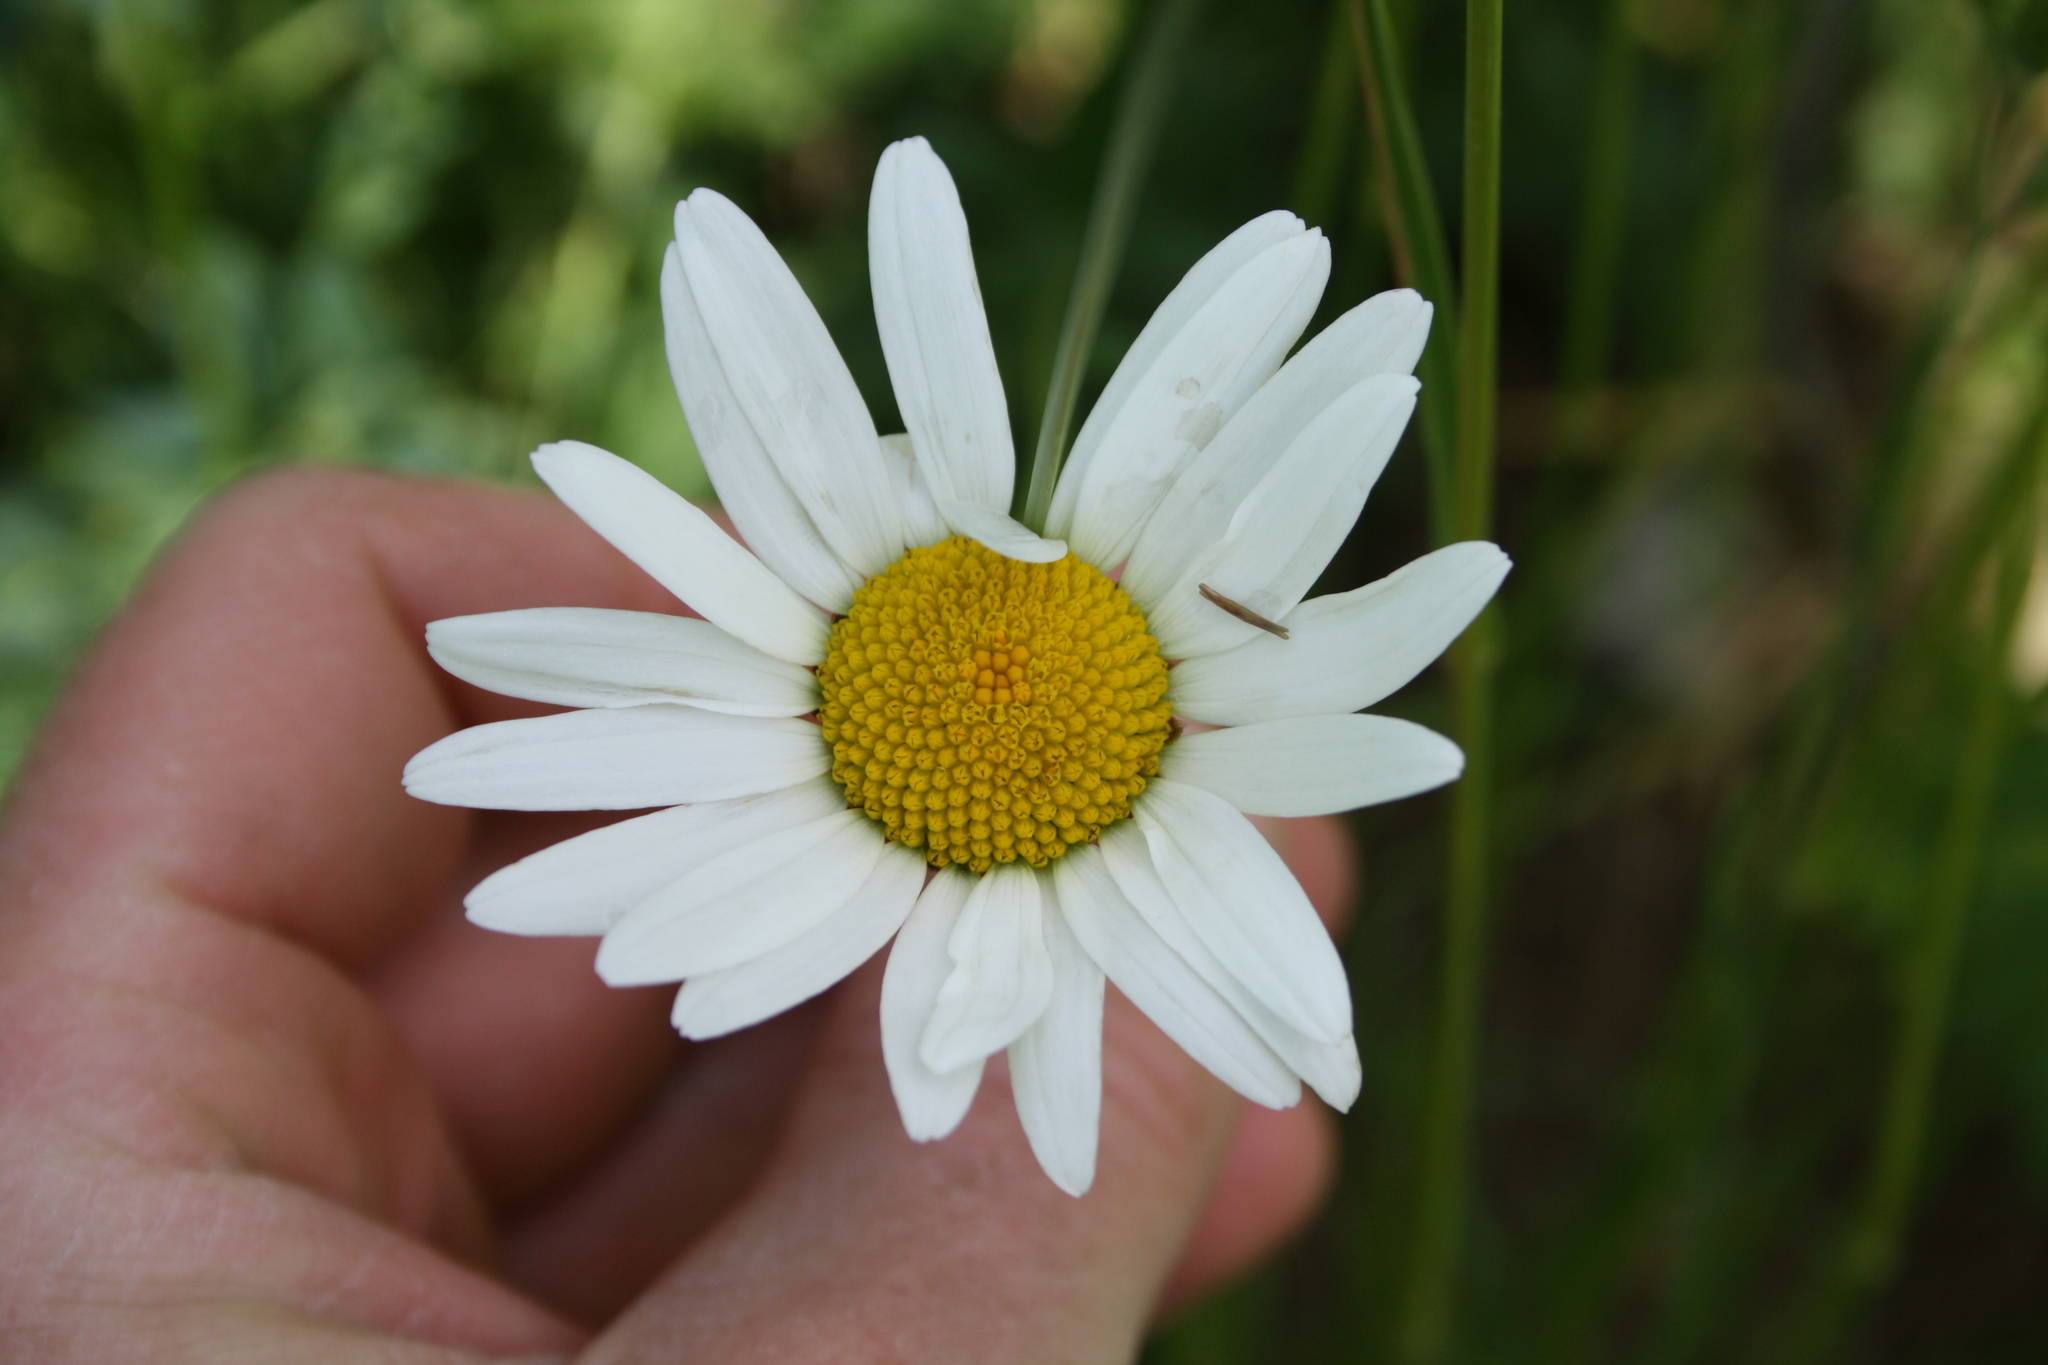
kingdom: Plantae
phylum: Tracheophyta
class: Magnoliopsida
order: Asterales
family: Asteraceae
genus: Leucanthemum
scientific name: Leucanthemum vulgare
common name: Oxeye daisy
